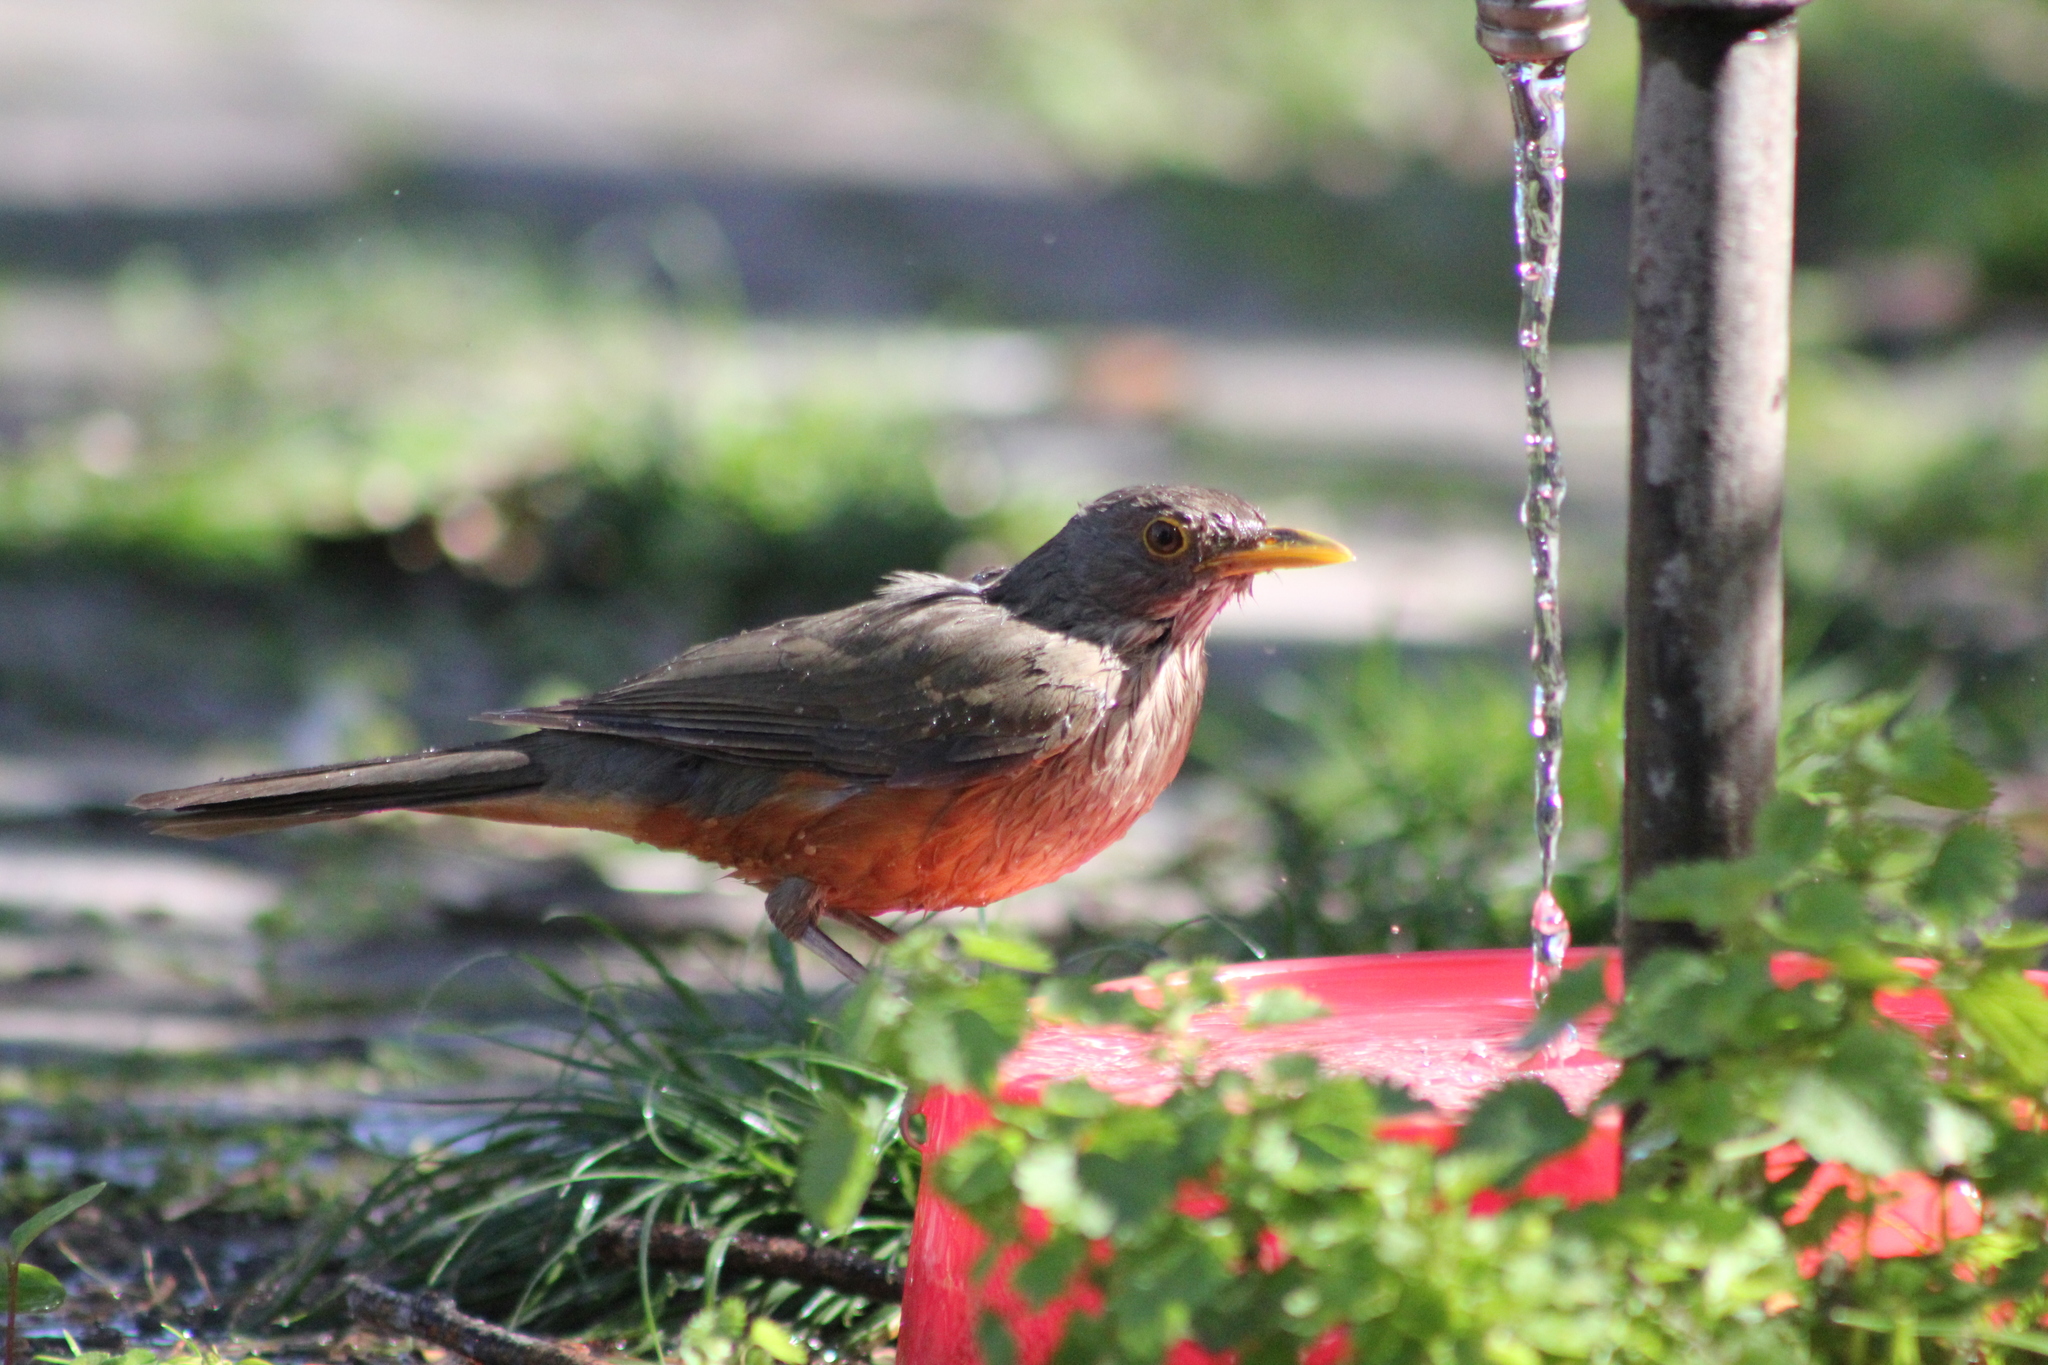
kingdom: Animalia
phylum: Chordata
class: Aves
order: Passeriformes
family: Turdidae
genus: Turdus
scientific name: Turdus rufiventris
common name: Rufous-bellied thrush
